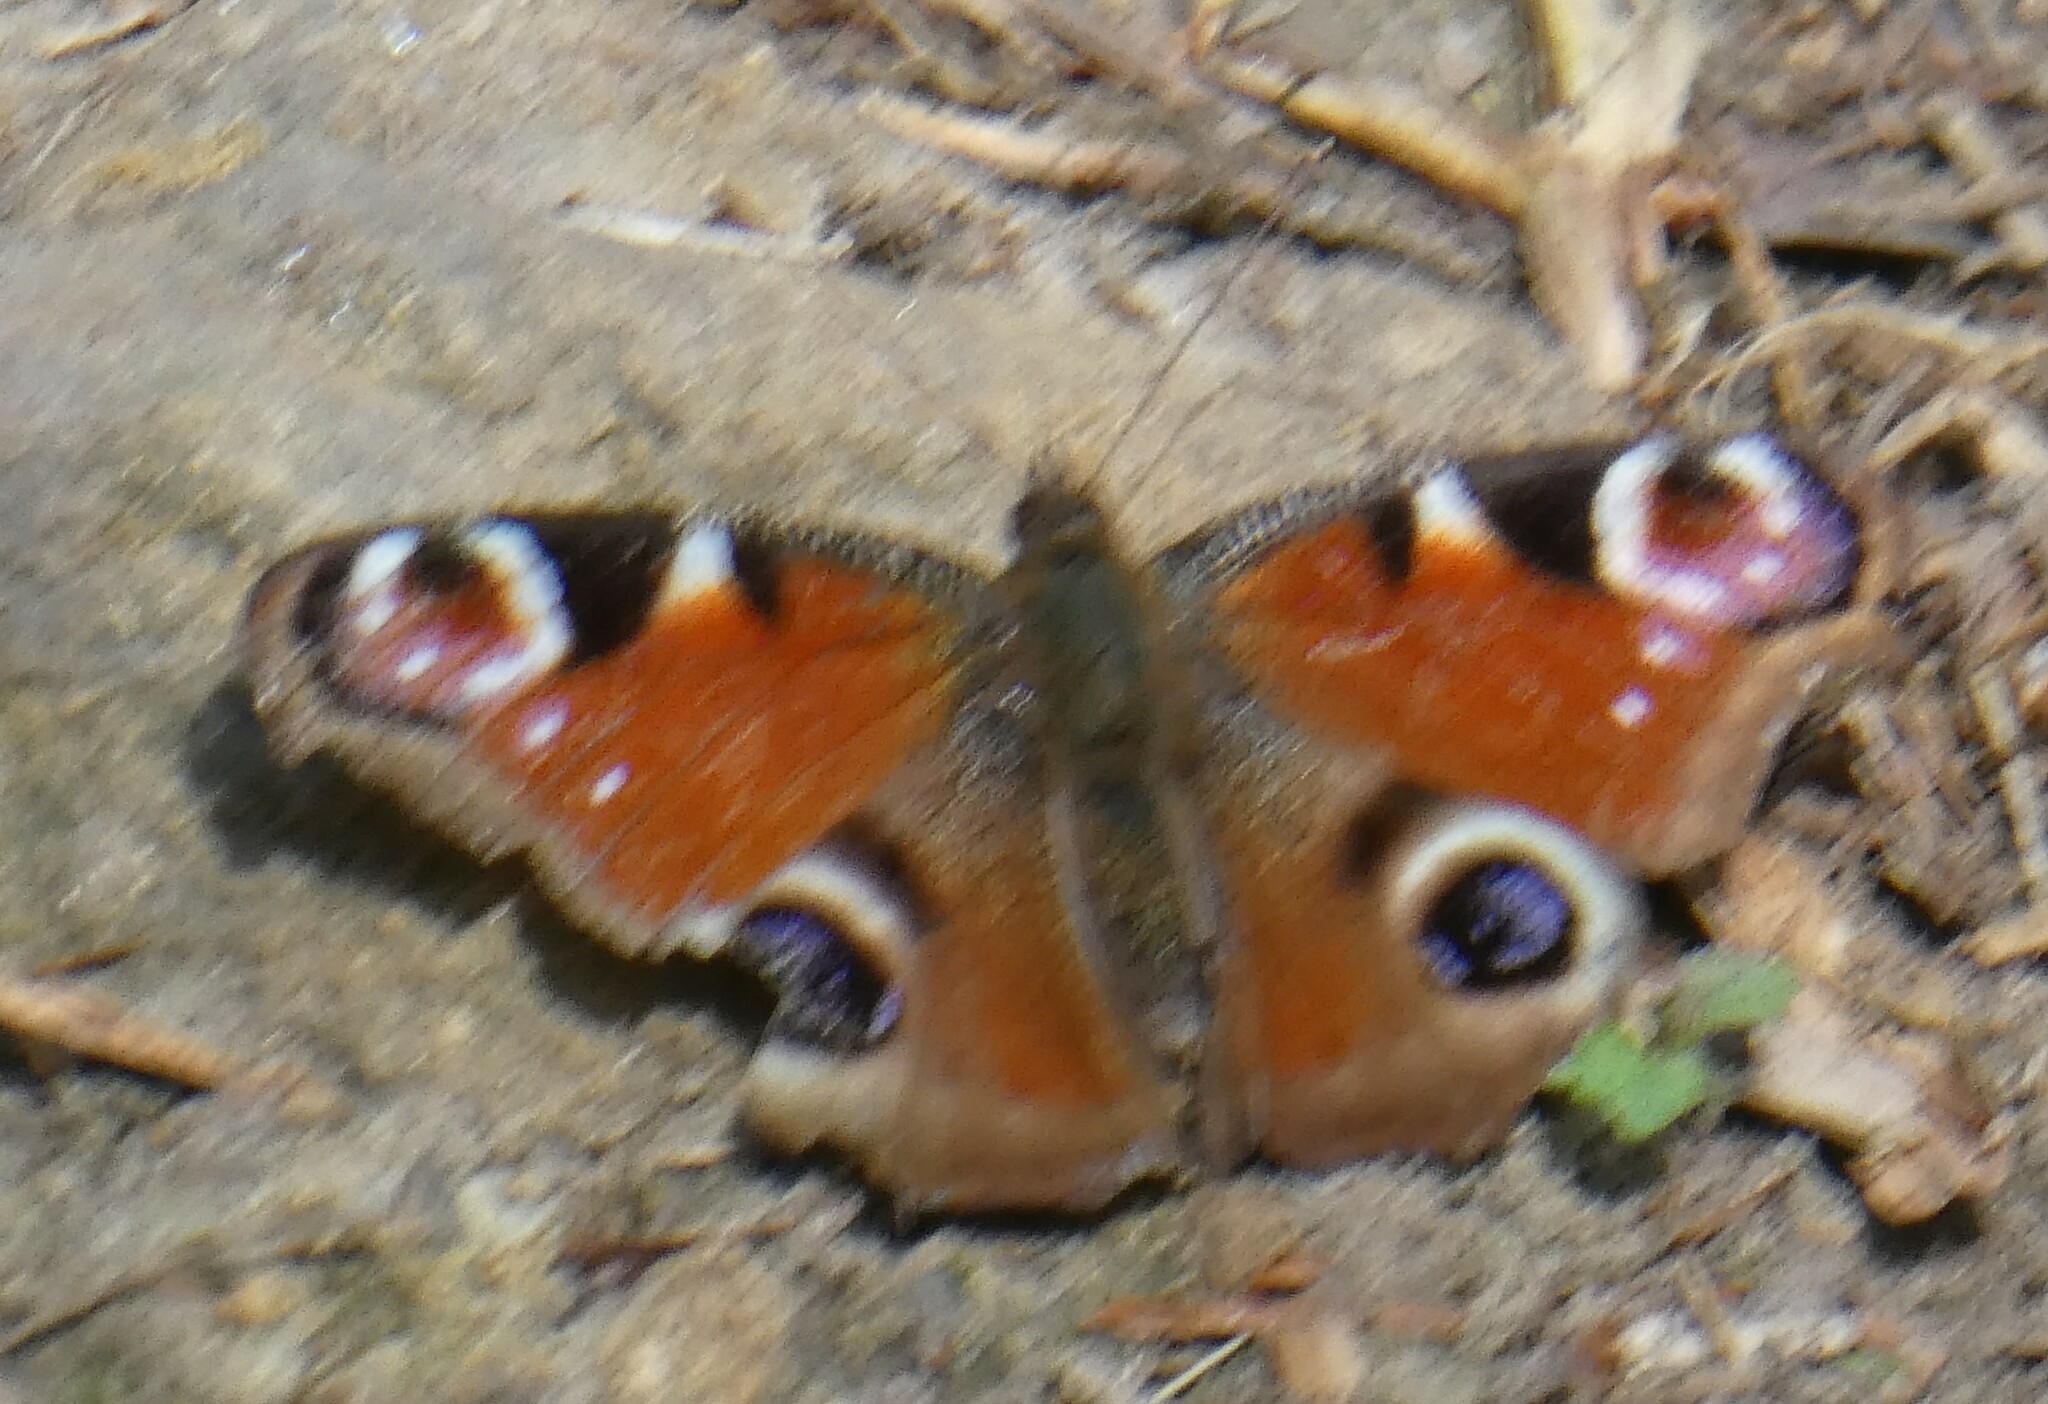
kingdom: Animalia
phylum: Arthropoda
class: Insecta
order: Lepidoptera
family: Nymphalidae
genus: Aglais
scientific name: Aglais io
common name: Peacock
